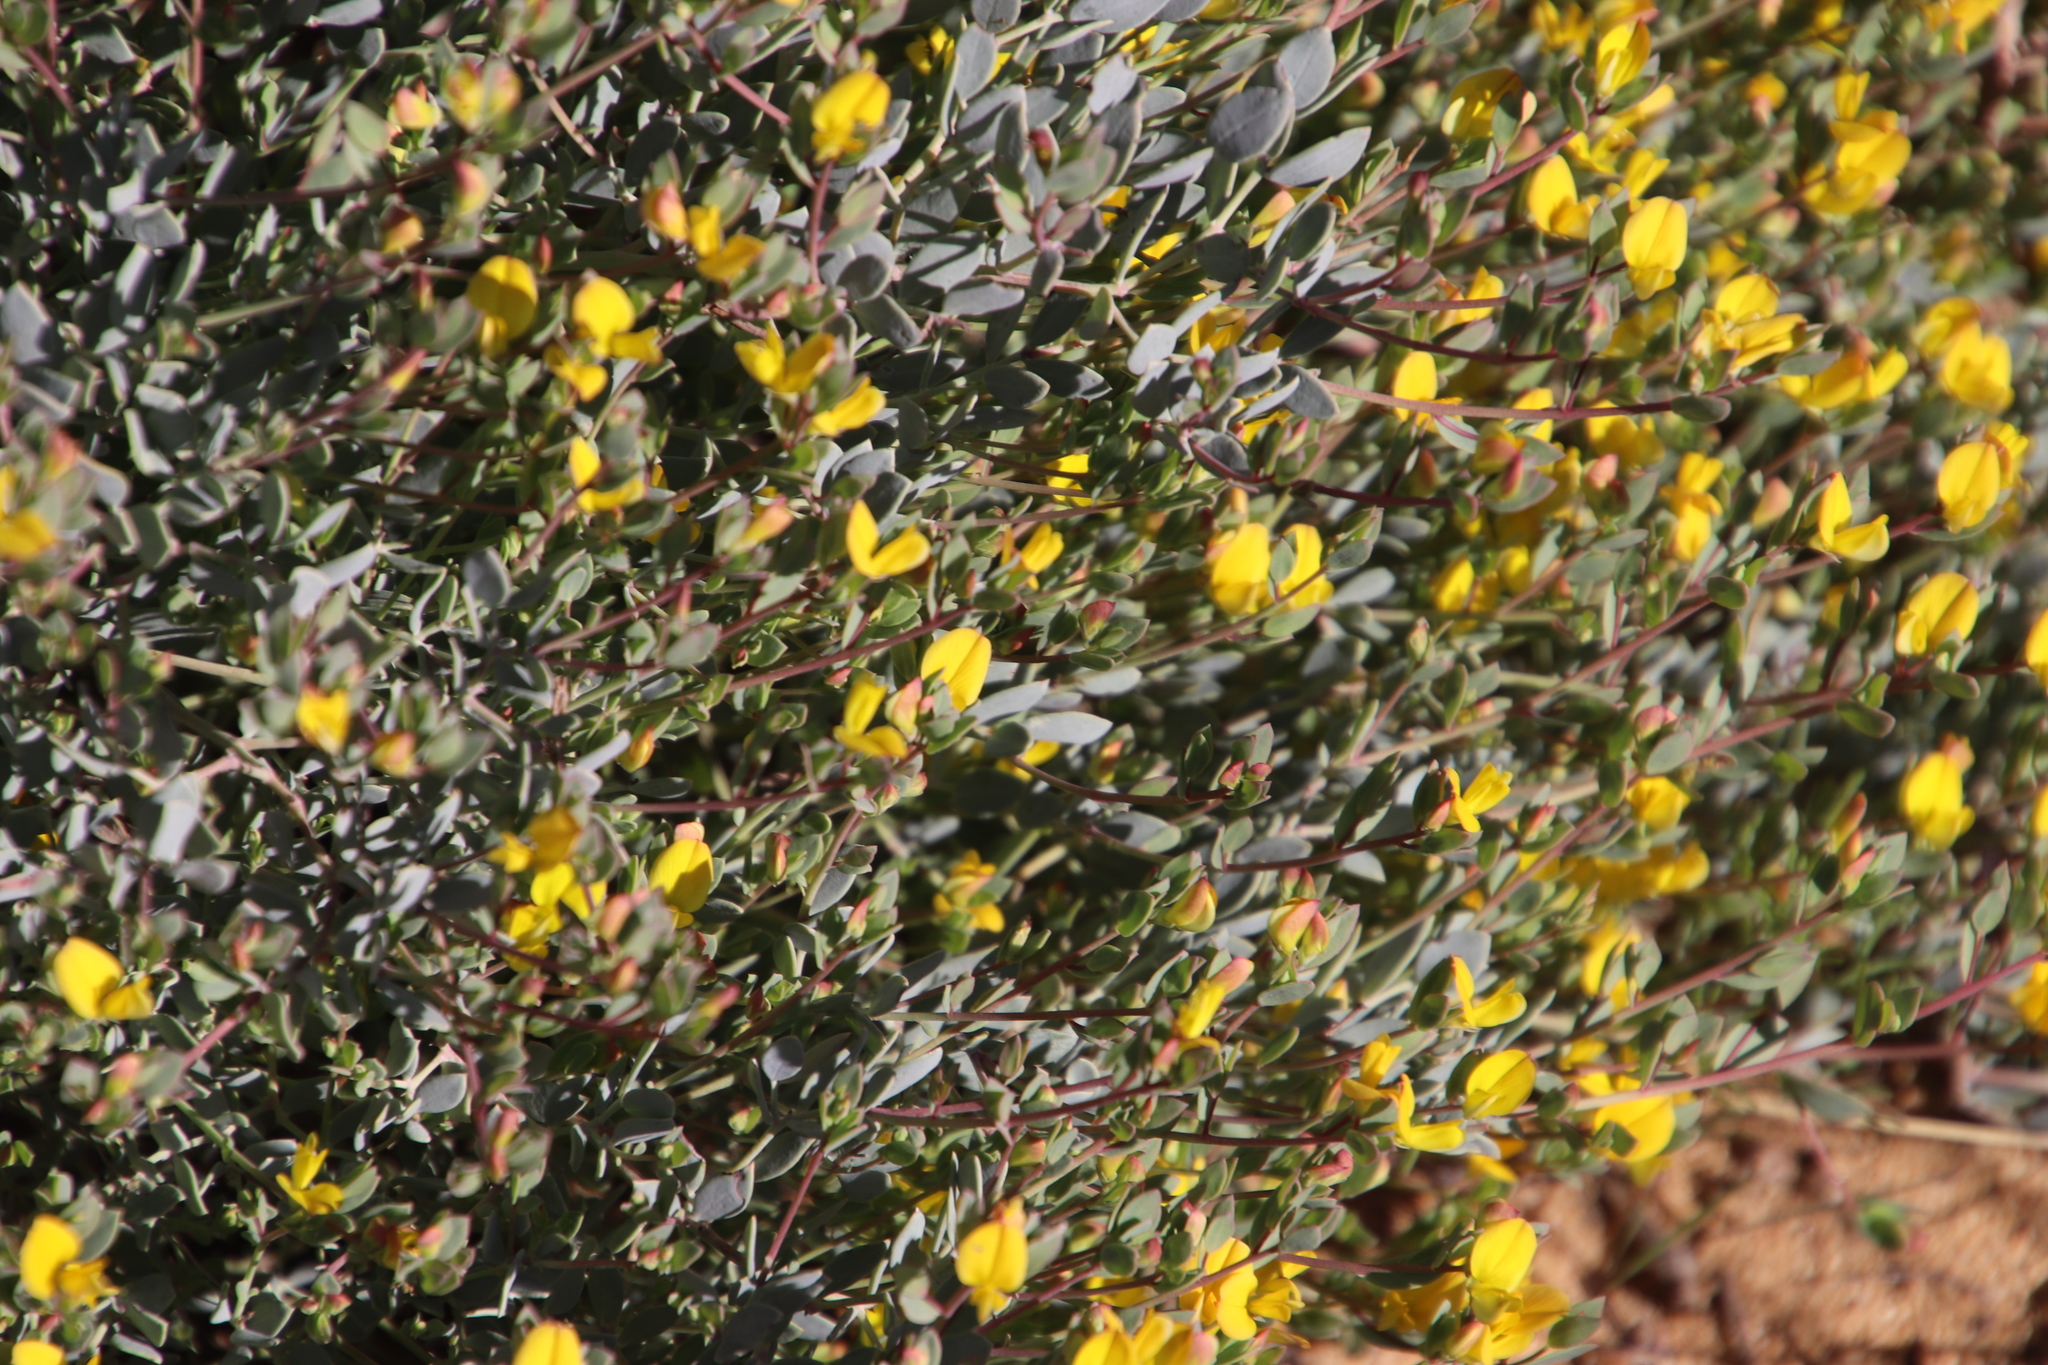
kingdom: Plantae
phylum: Tracheophyta
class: Magnoliopsida
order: Fabales
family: Fabaceae
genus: Rafnia
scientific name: Rafnia diffusa
